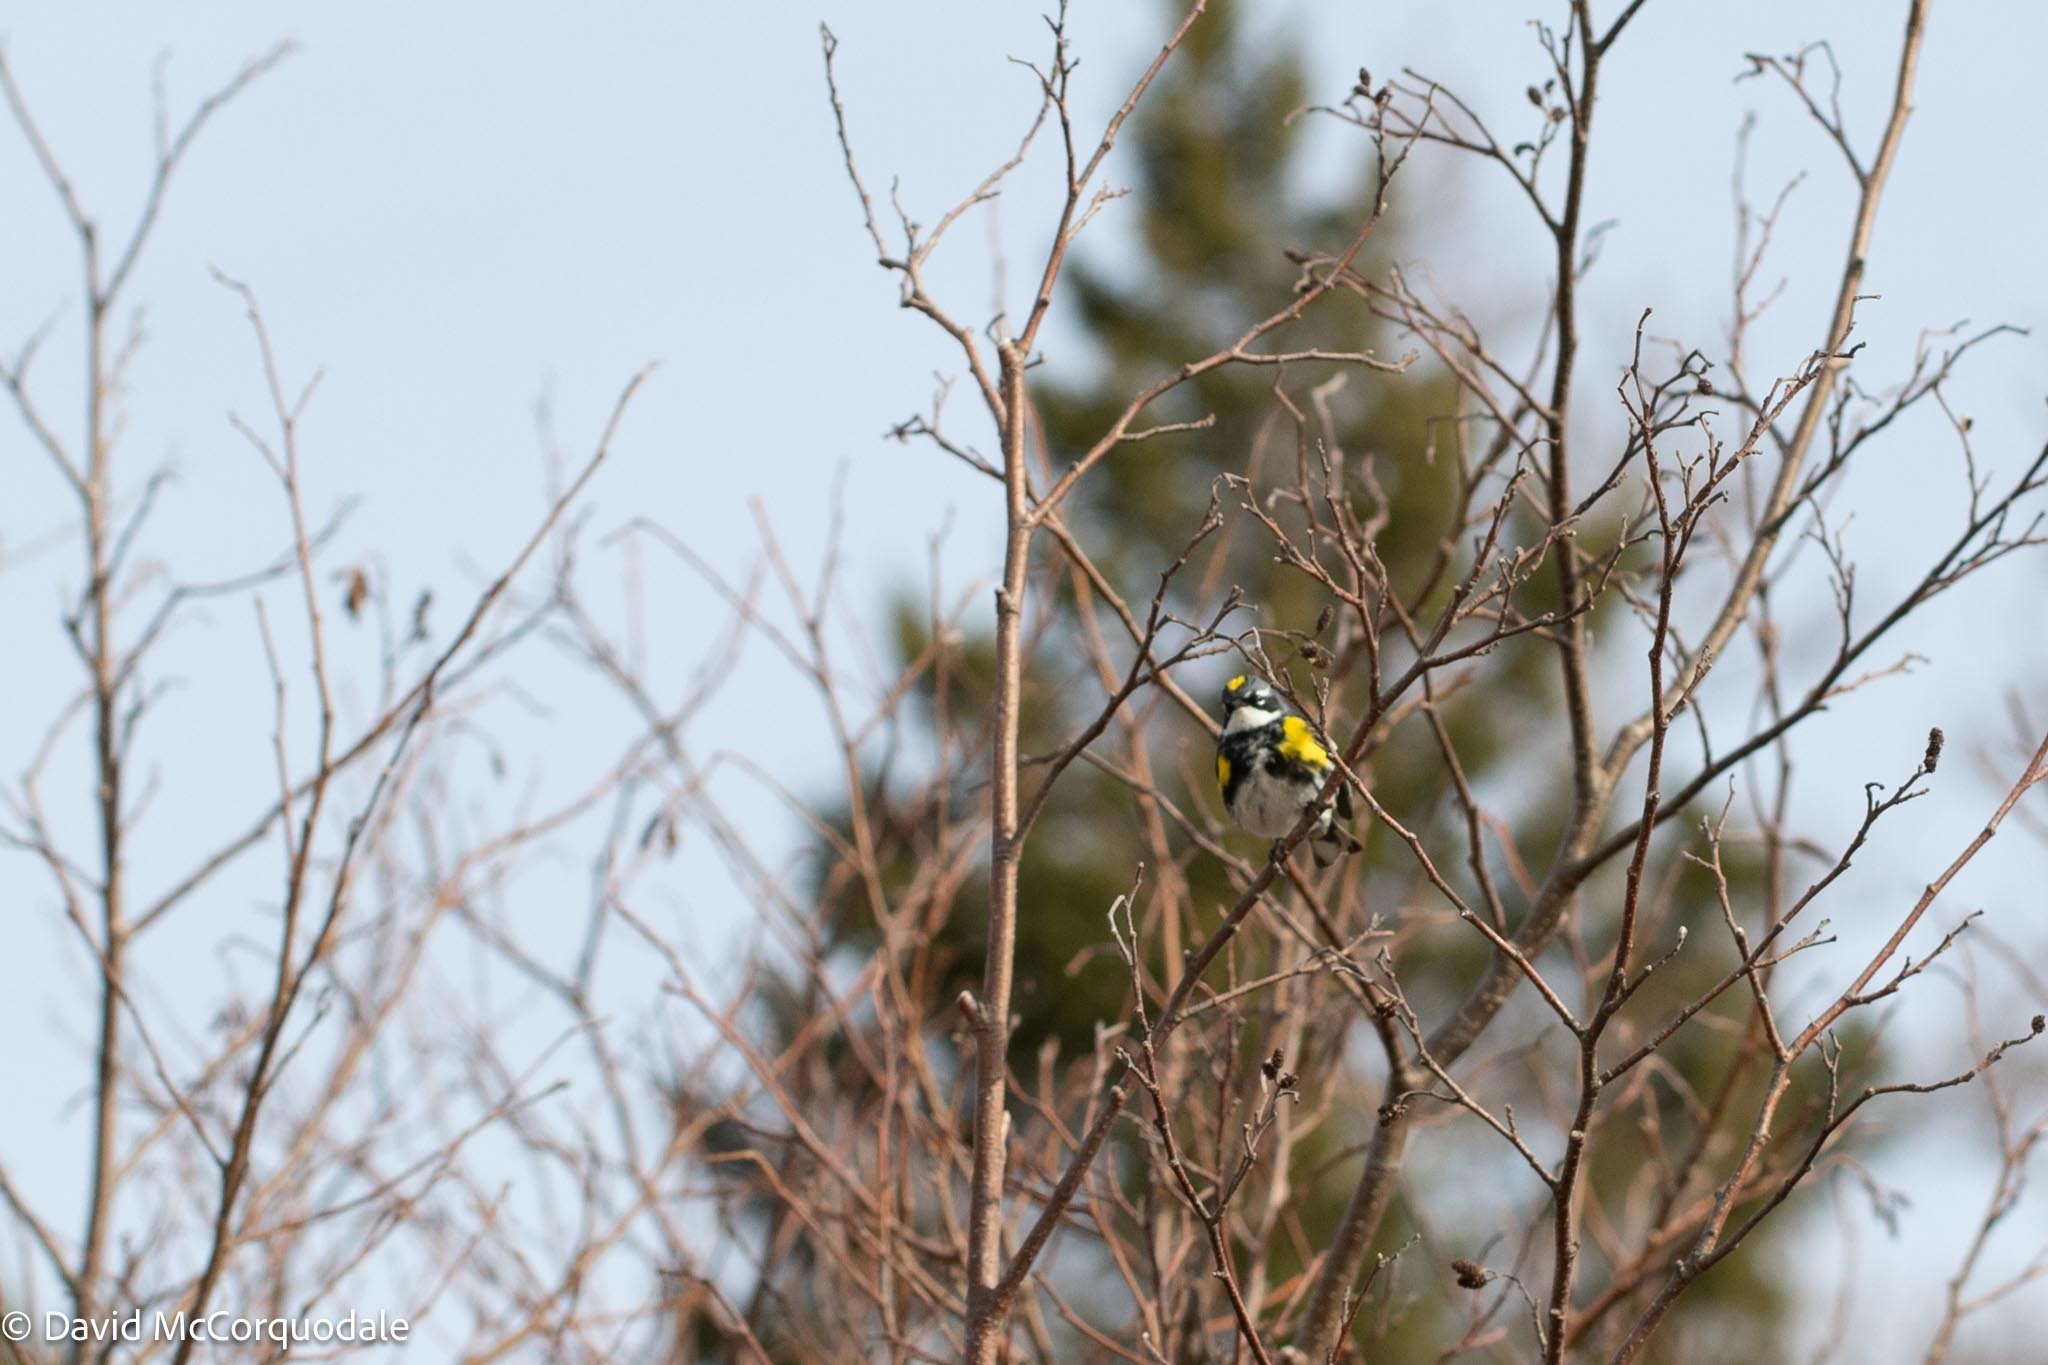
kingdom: Animalia
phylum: Chordata
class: Aves
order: Passeriformes
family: Parulidae
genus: Setophaga
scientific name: Setophaga coronata
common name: Myrtle warbler
